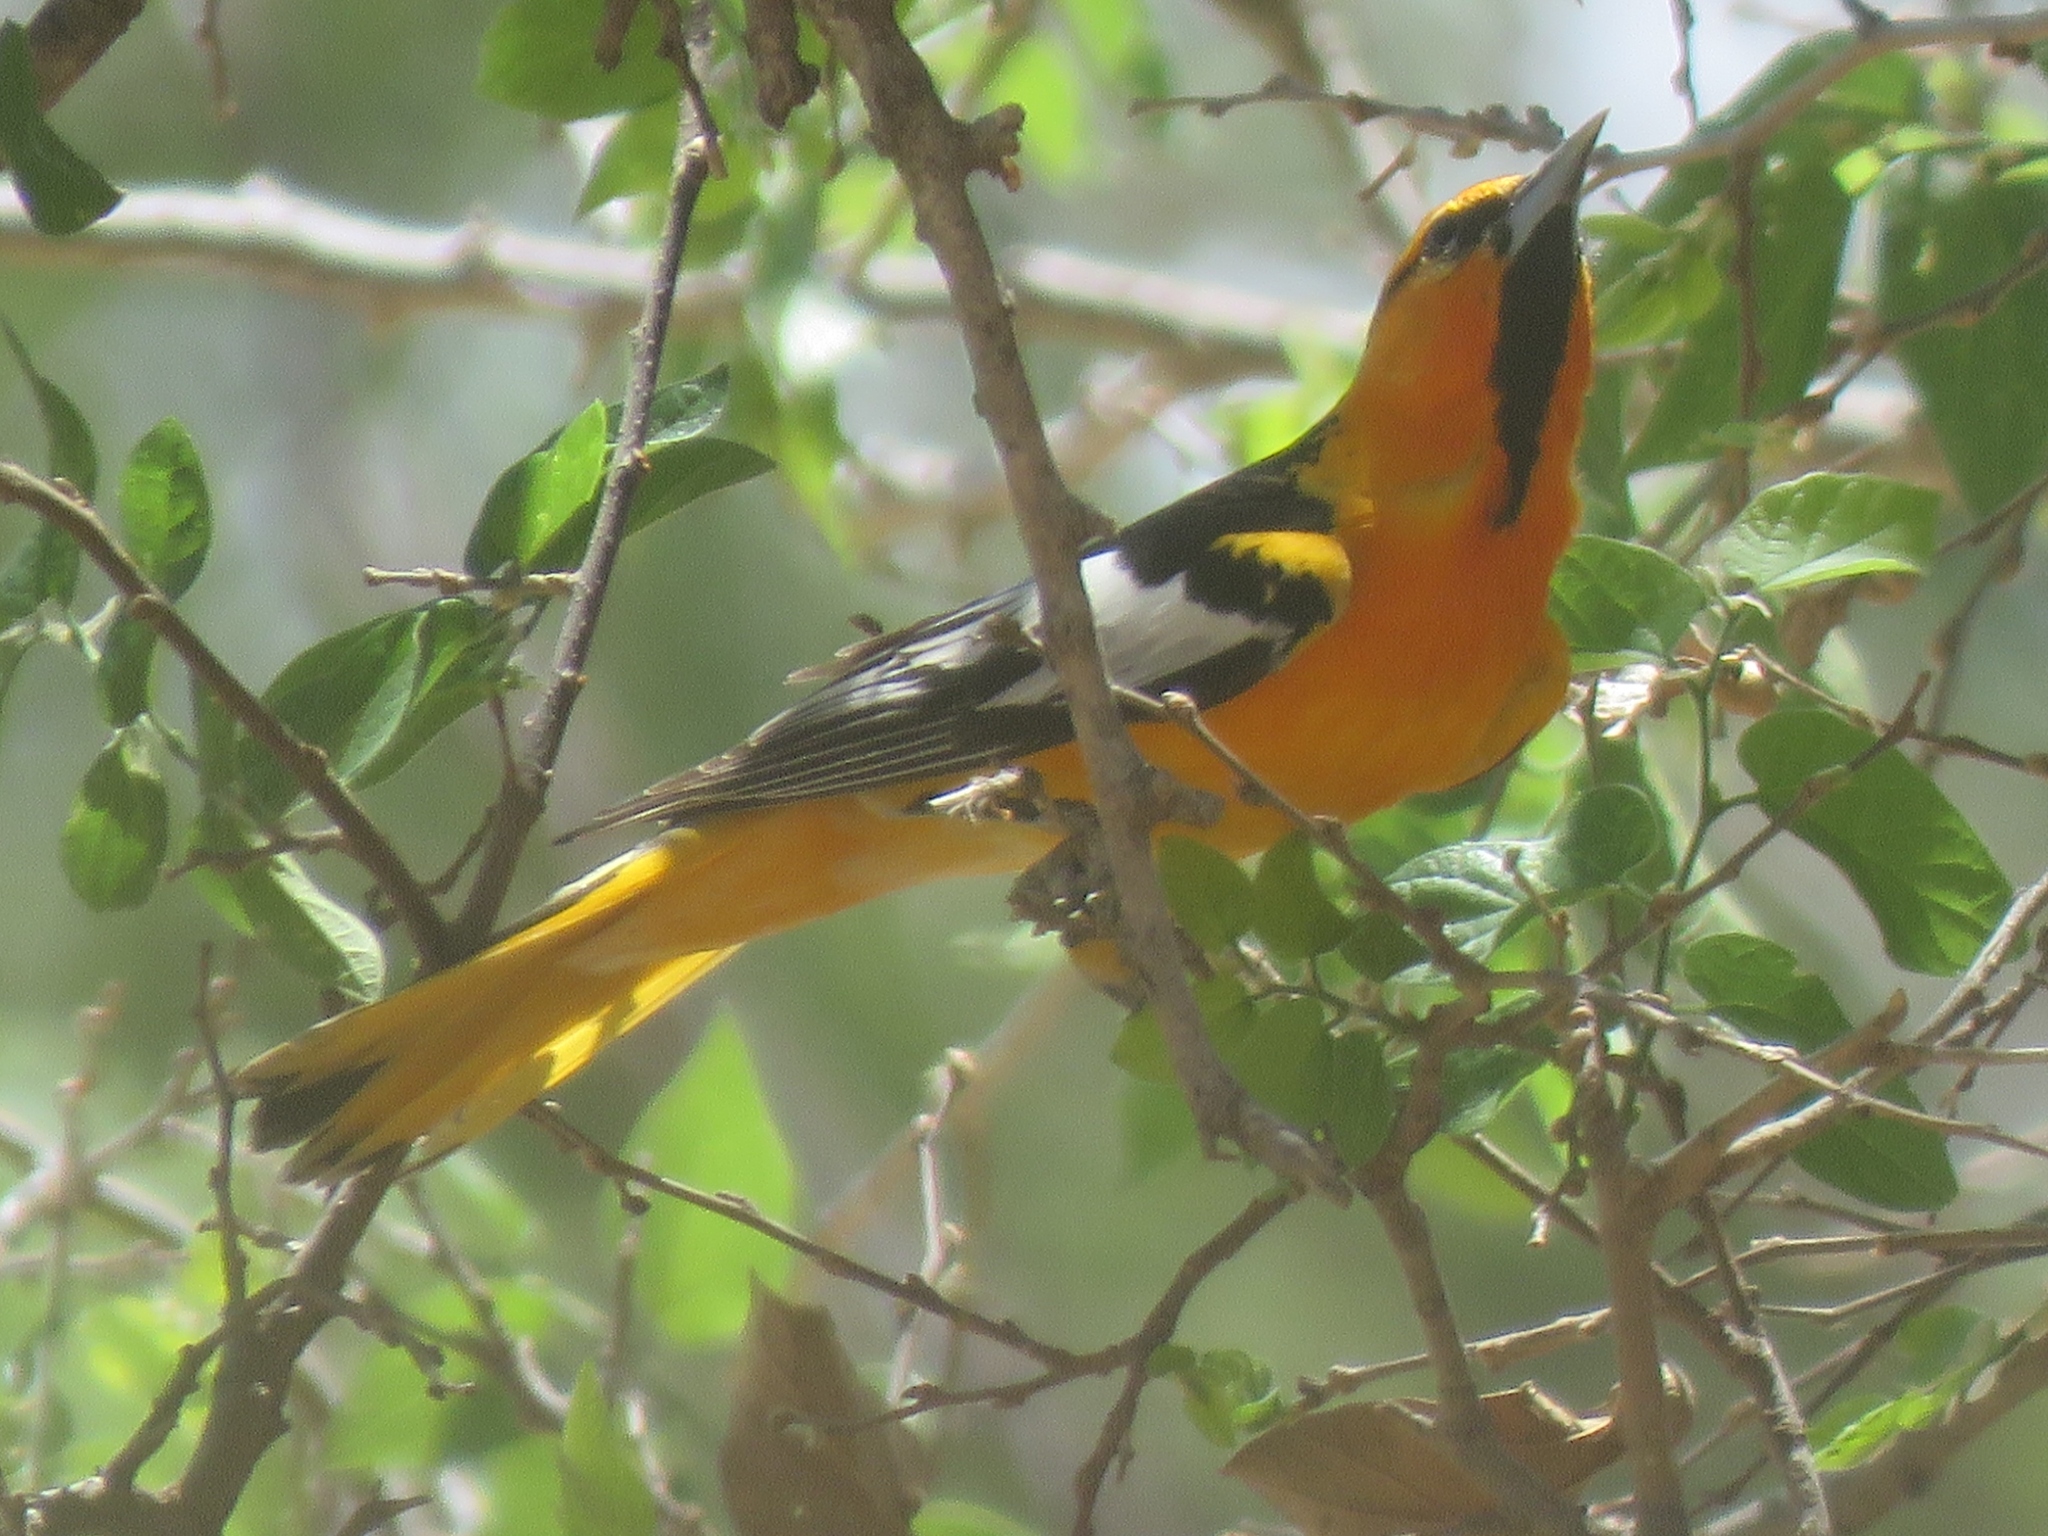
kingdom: Animalia
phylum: Chordata
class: Aves
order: Passeriformes
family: Icteridae
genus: Icterus
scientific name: Icterus bullockii
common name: Bullock's oriole
